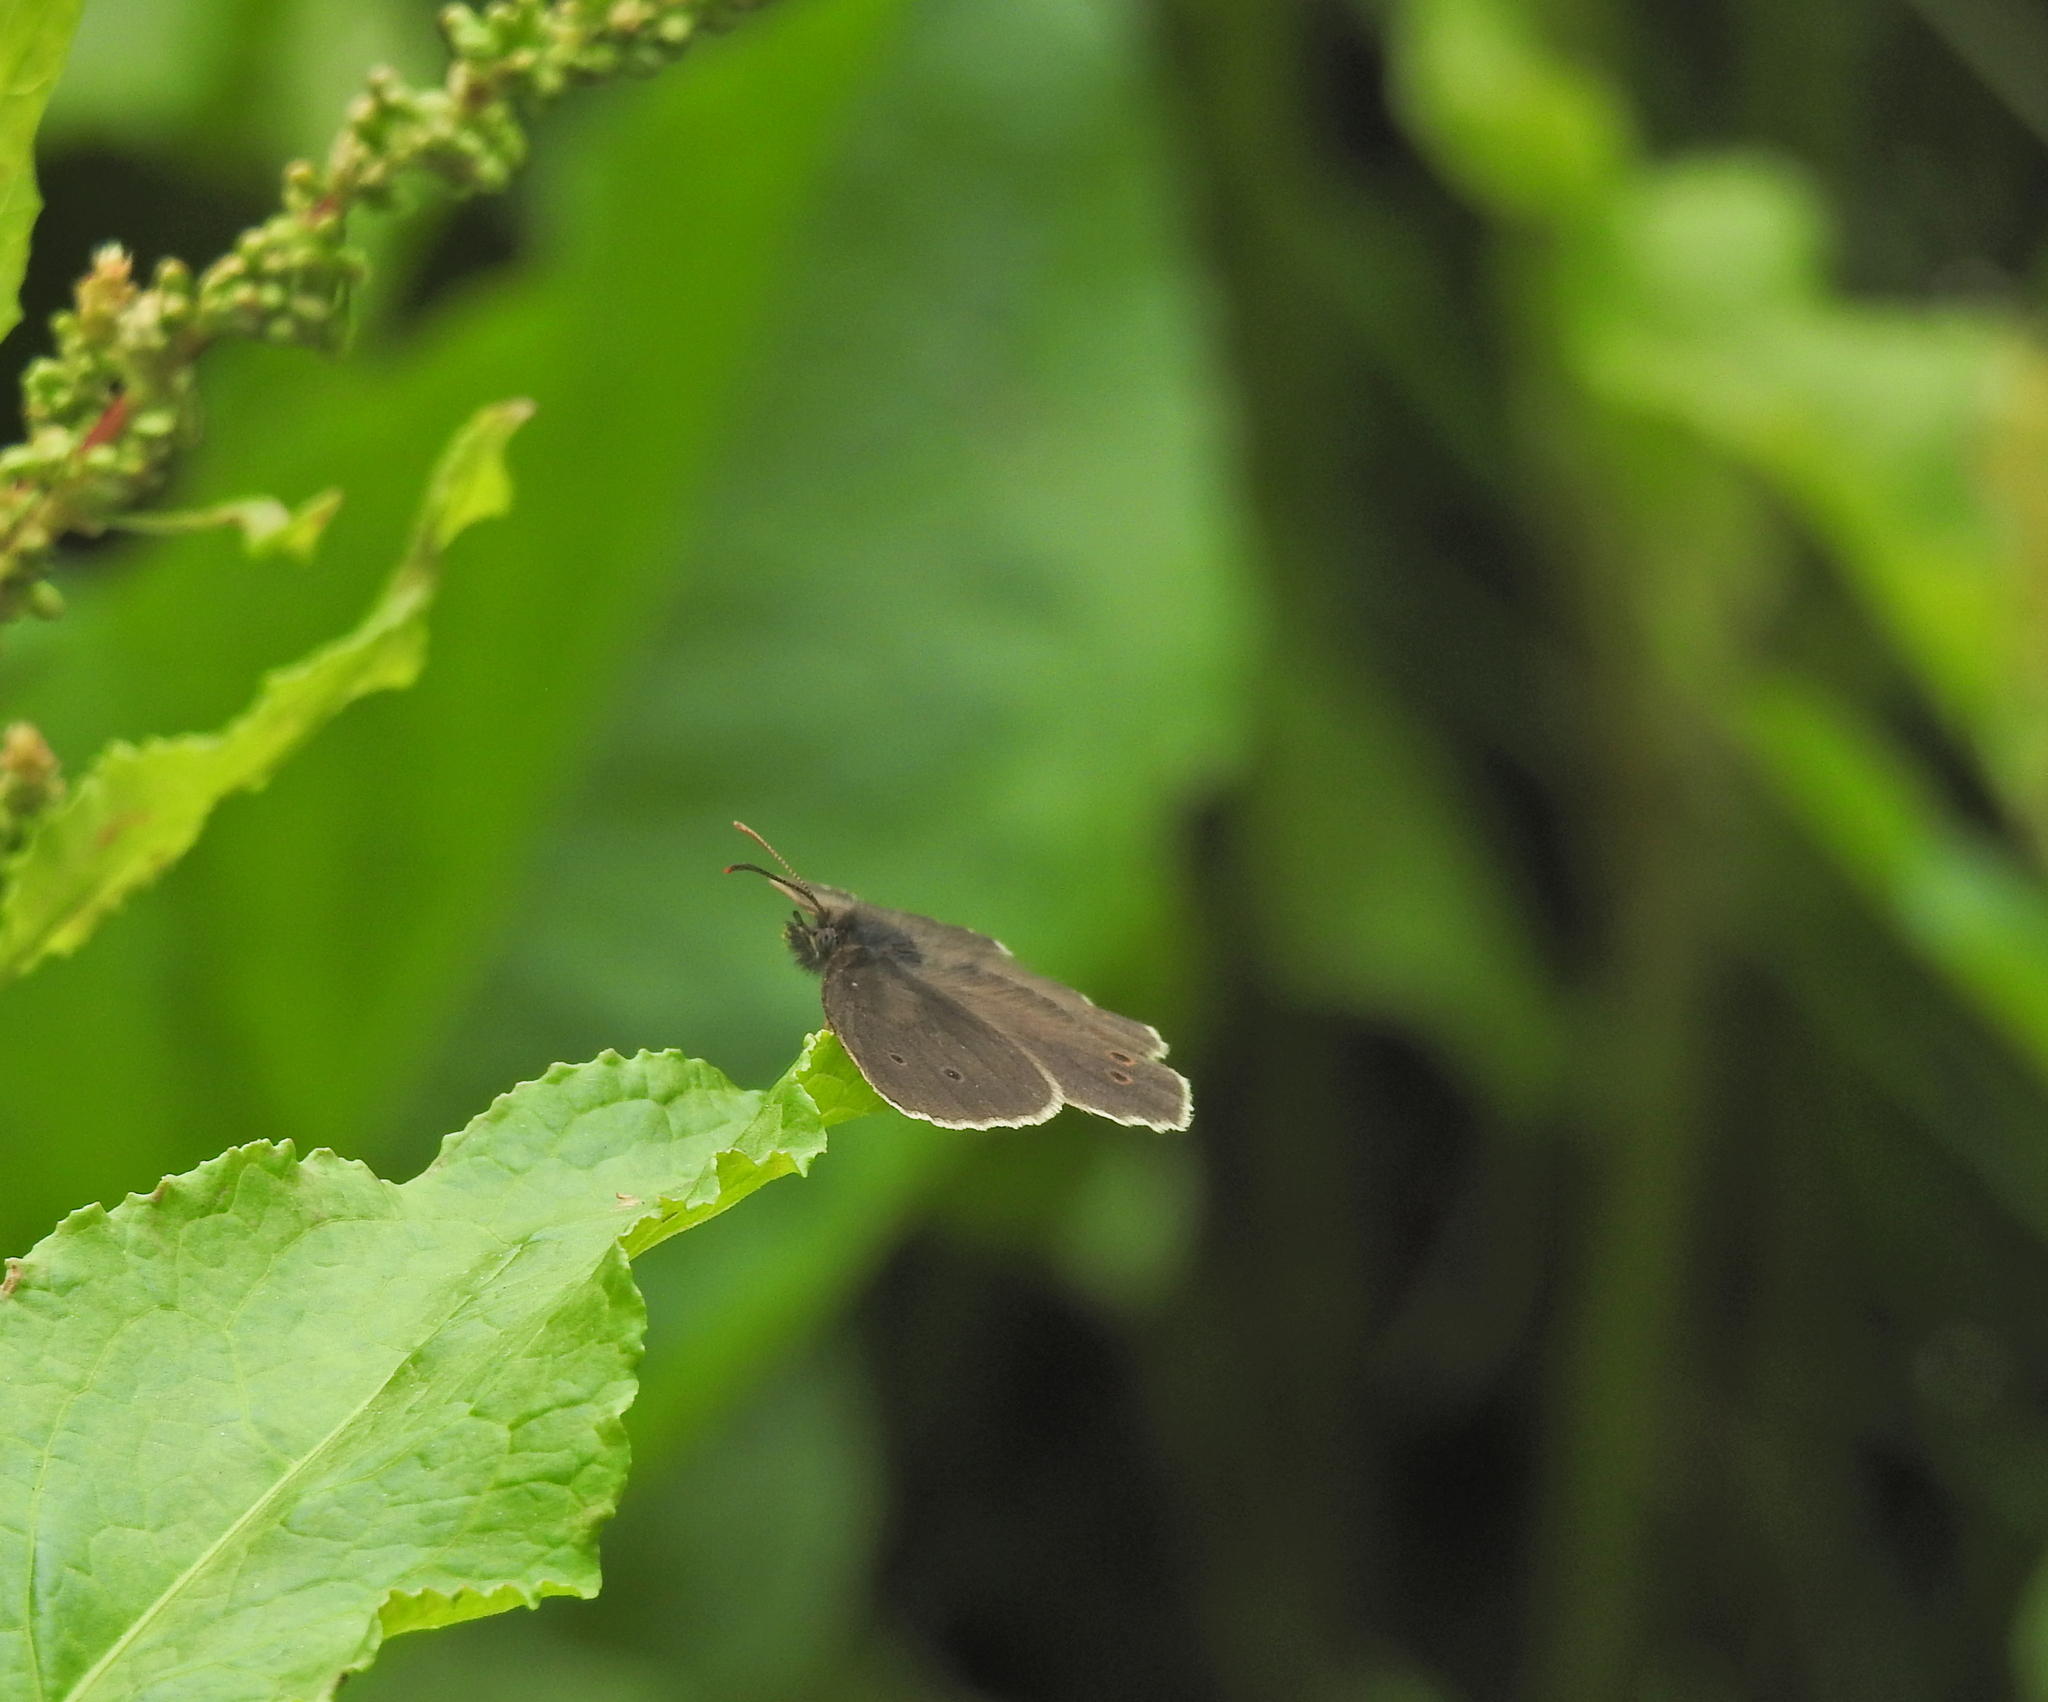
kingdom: Animalia
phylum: Arthropoda
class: Insecta
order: Lepidoptera
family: Nymphalidae
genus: Aphantopus
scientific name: Aphantopus hyperantus
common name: Ringlet
